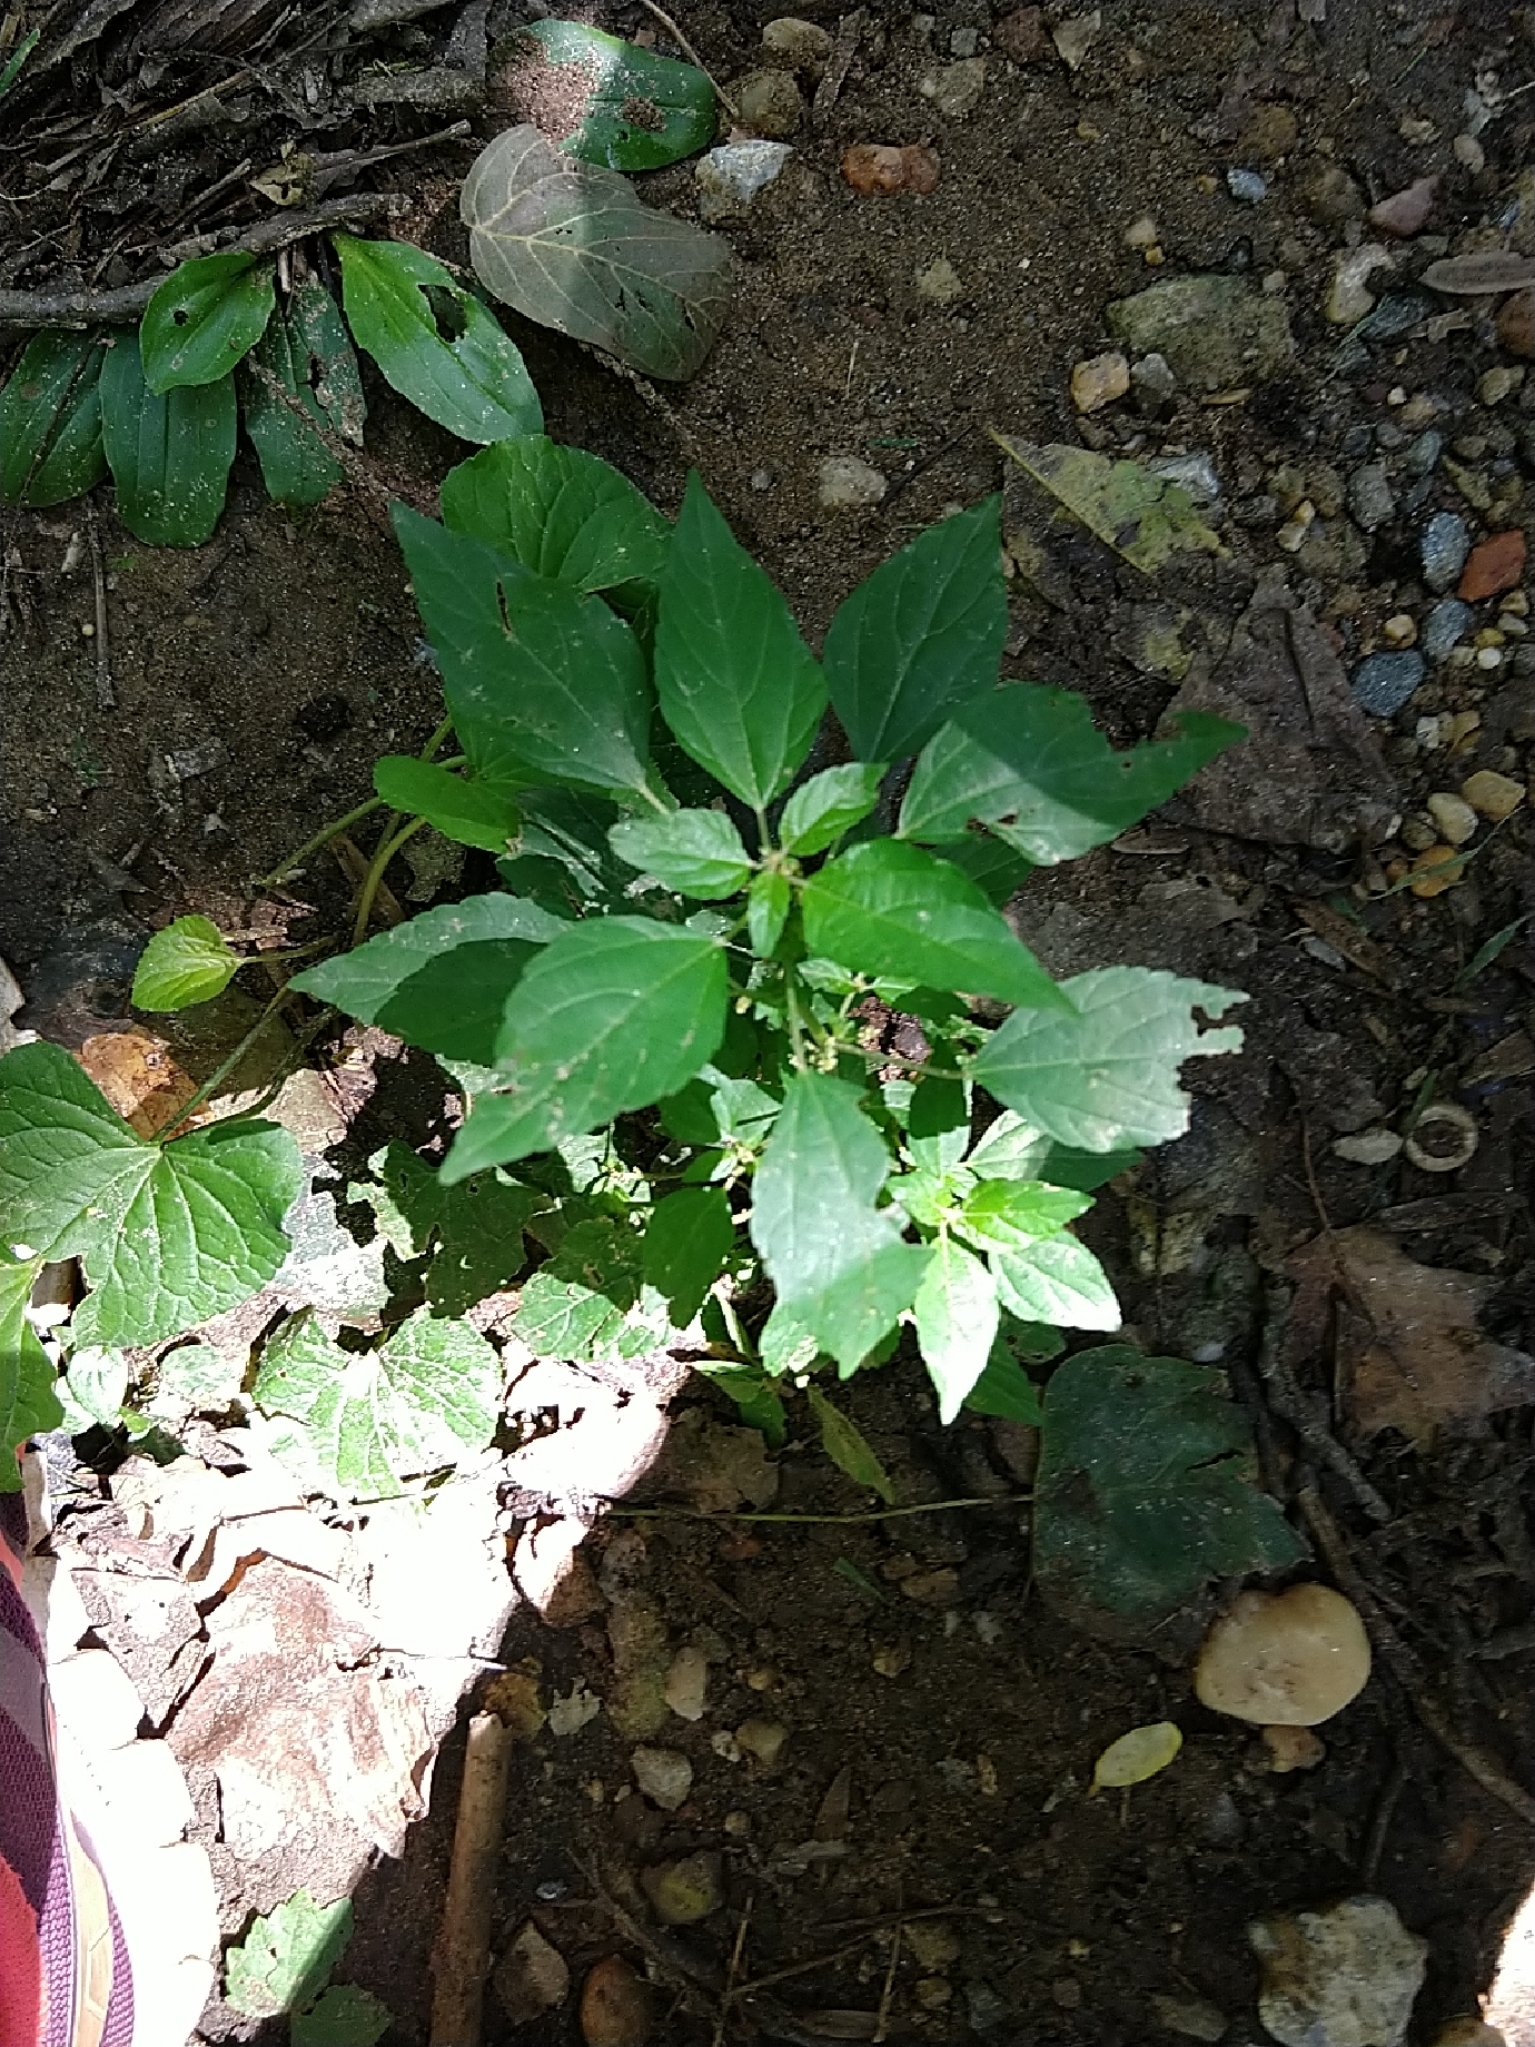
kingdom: Plantae
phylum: Tracheophyta
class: Magnoliopsida
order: Malpighiales
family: Euphorbiaceae
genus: Acalypha
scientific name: Acalypha rhomboidea
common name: Rhombic copperleaf
